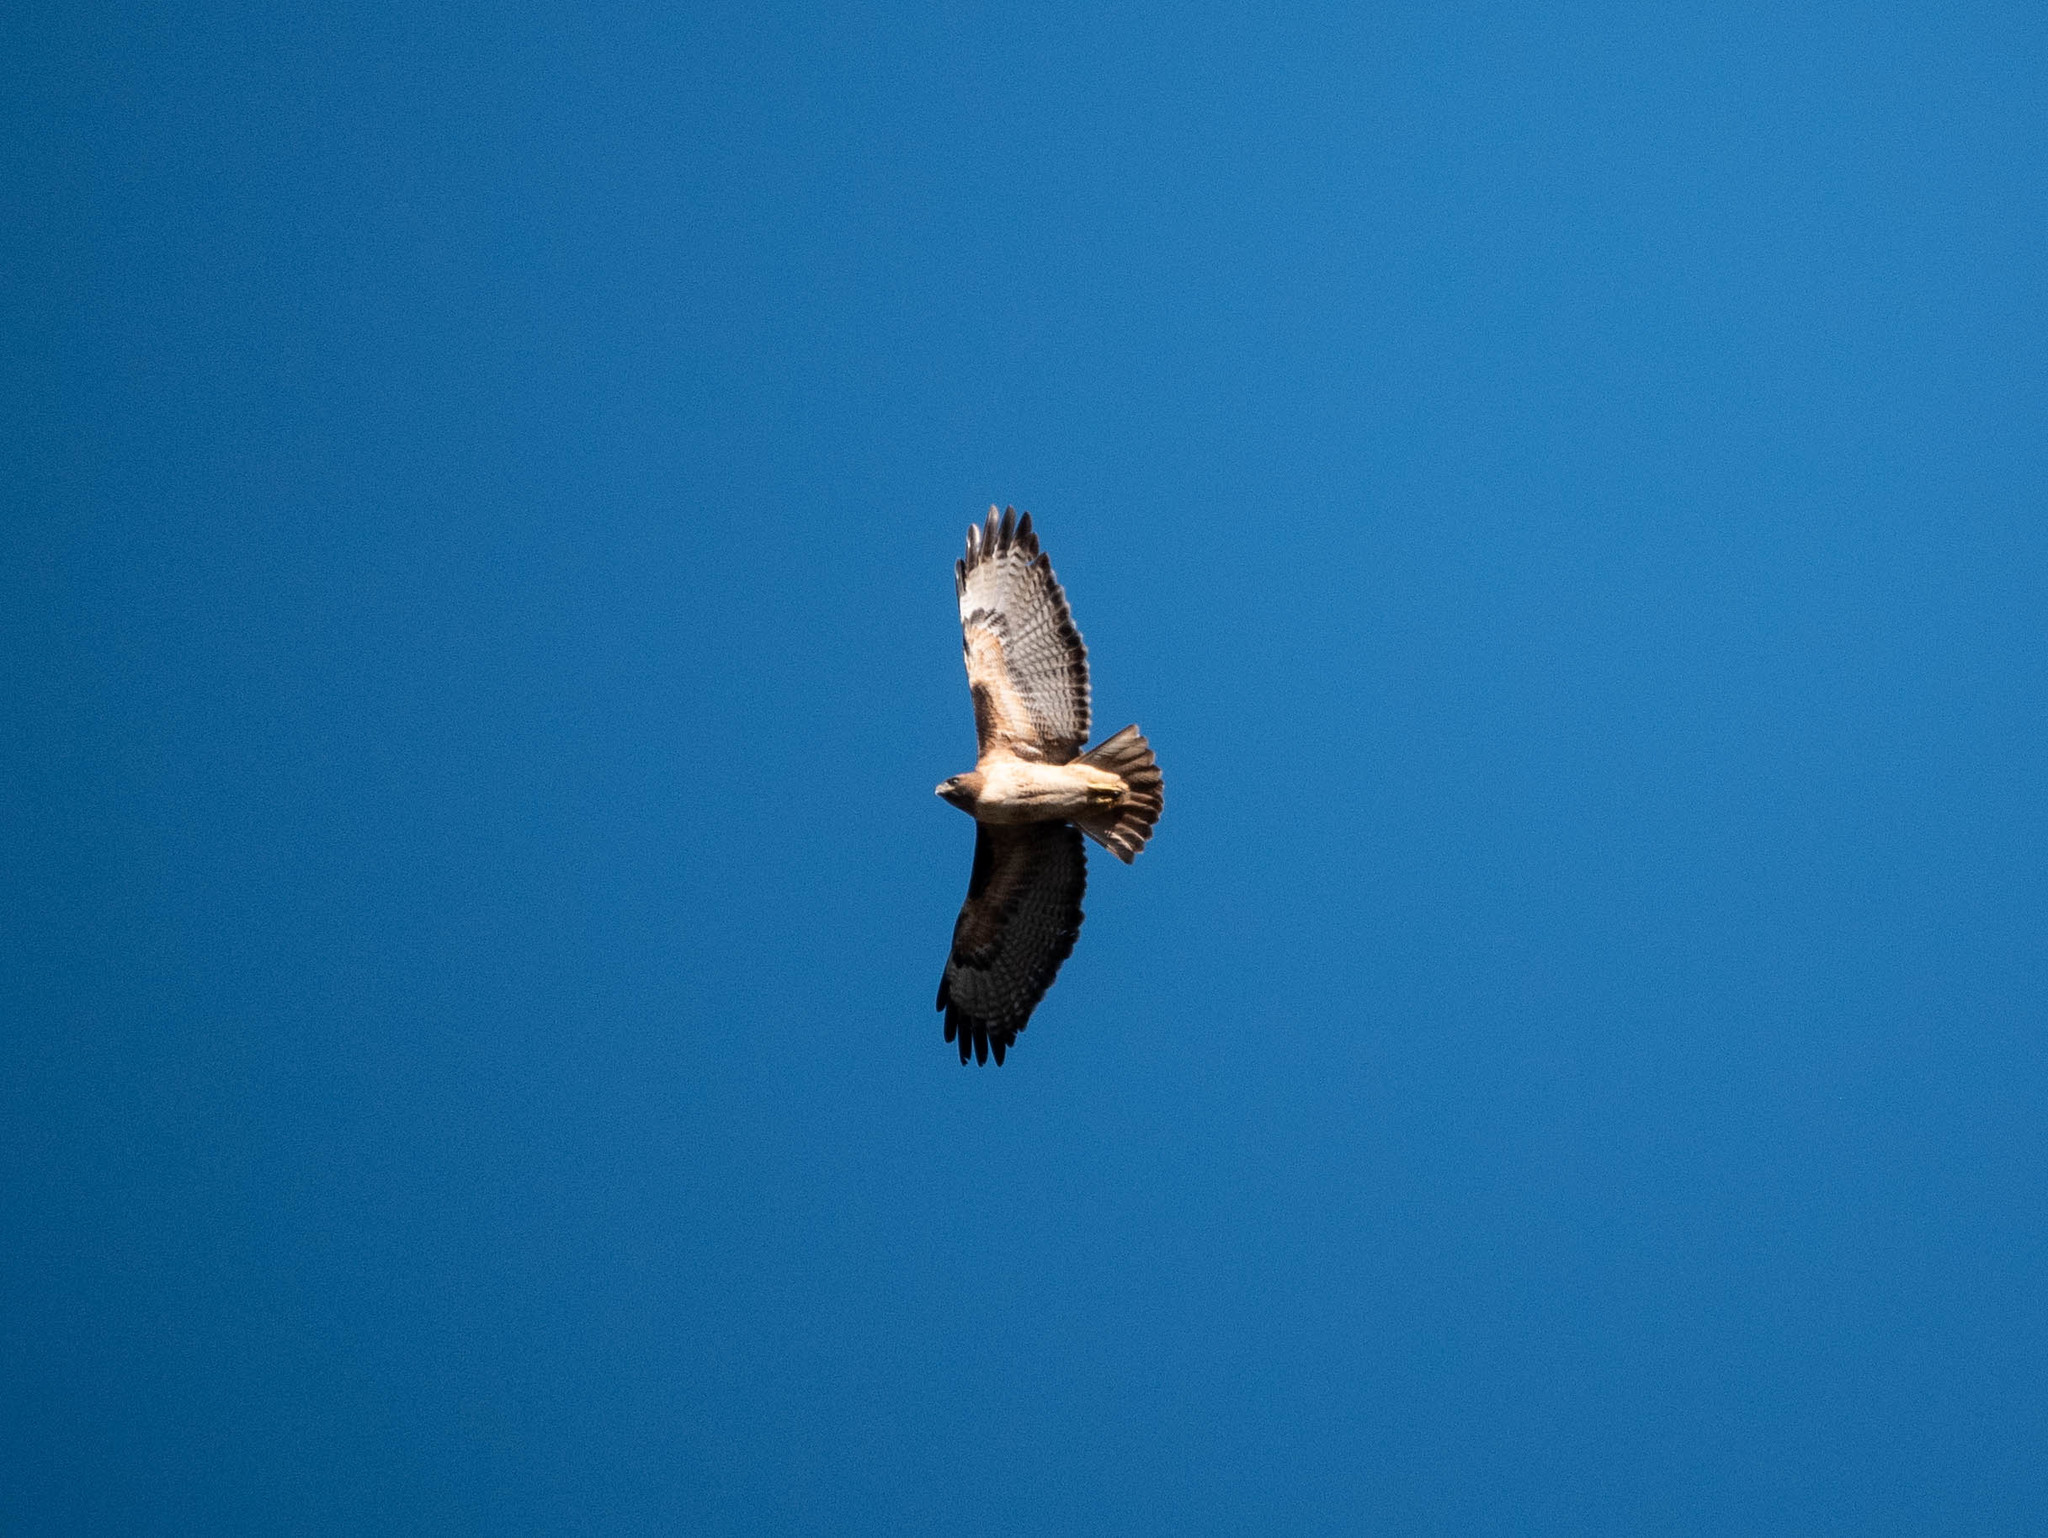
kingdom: Animalia
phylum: Chordata
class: Aves
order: Accipitriformes
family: Accipitridae
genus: Buteo
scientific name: Buteo jamaicensis
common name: Red-tailed hawk
